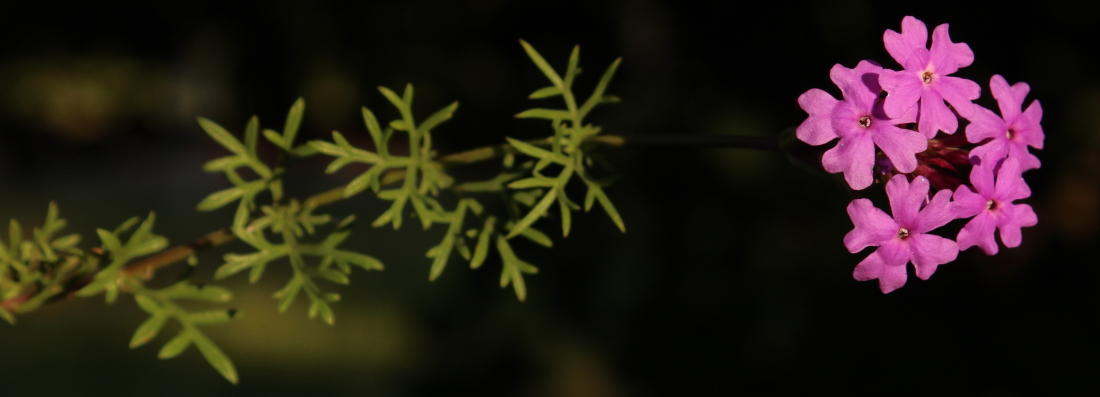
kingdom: Plantae
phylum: Tracheophyta
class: Magnoliopsida
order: Lamiales
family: Verbenaceae
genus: Verbena
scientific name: Verbena aristigera
